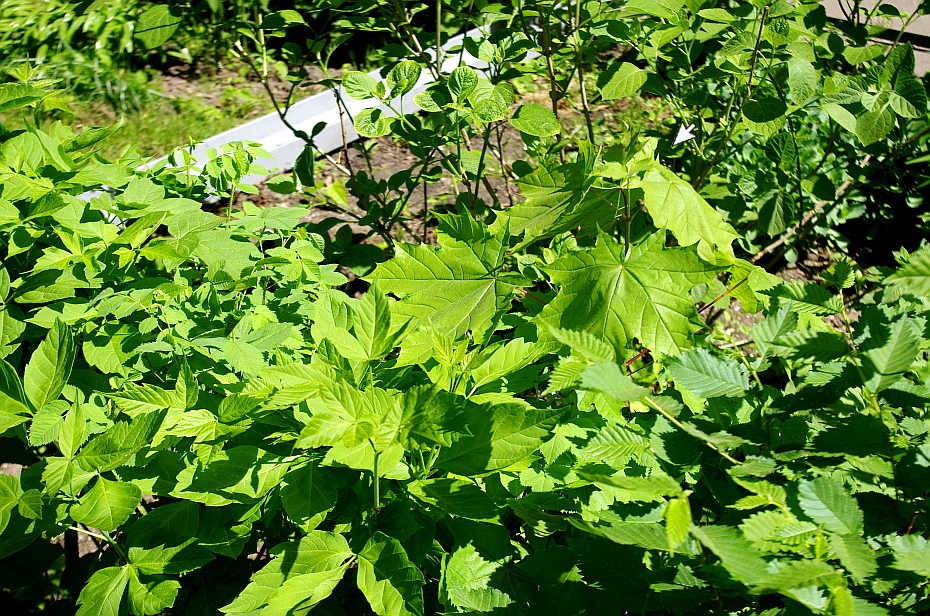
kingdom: Plantae
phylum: Tracheophyta
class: Magnoliopsida
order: Sapindales
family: Sapindaceae
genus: Acer
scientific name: Acer platanoides
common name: Norway maple
